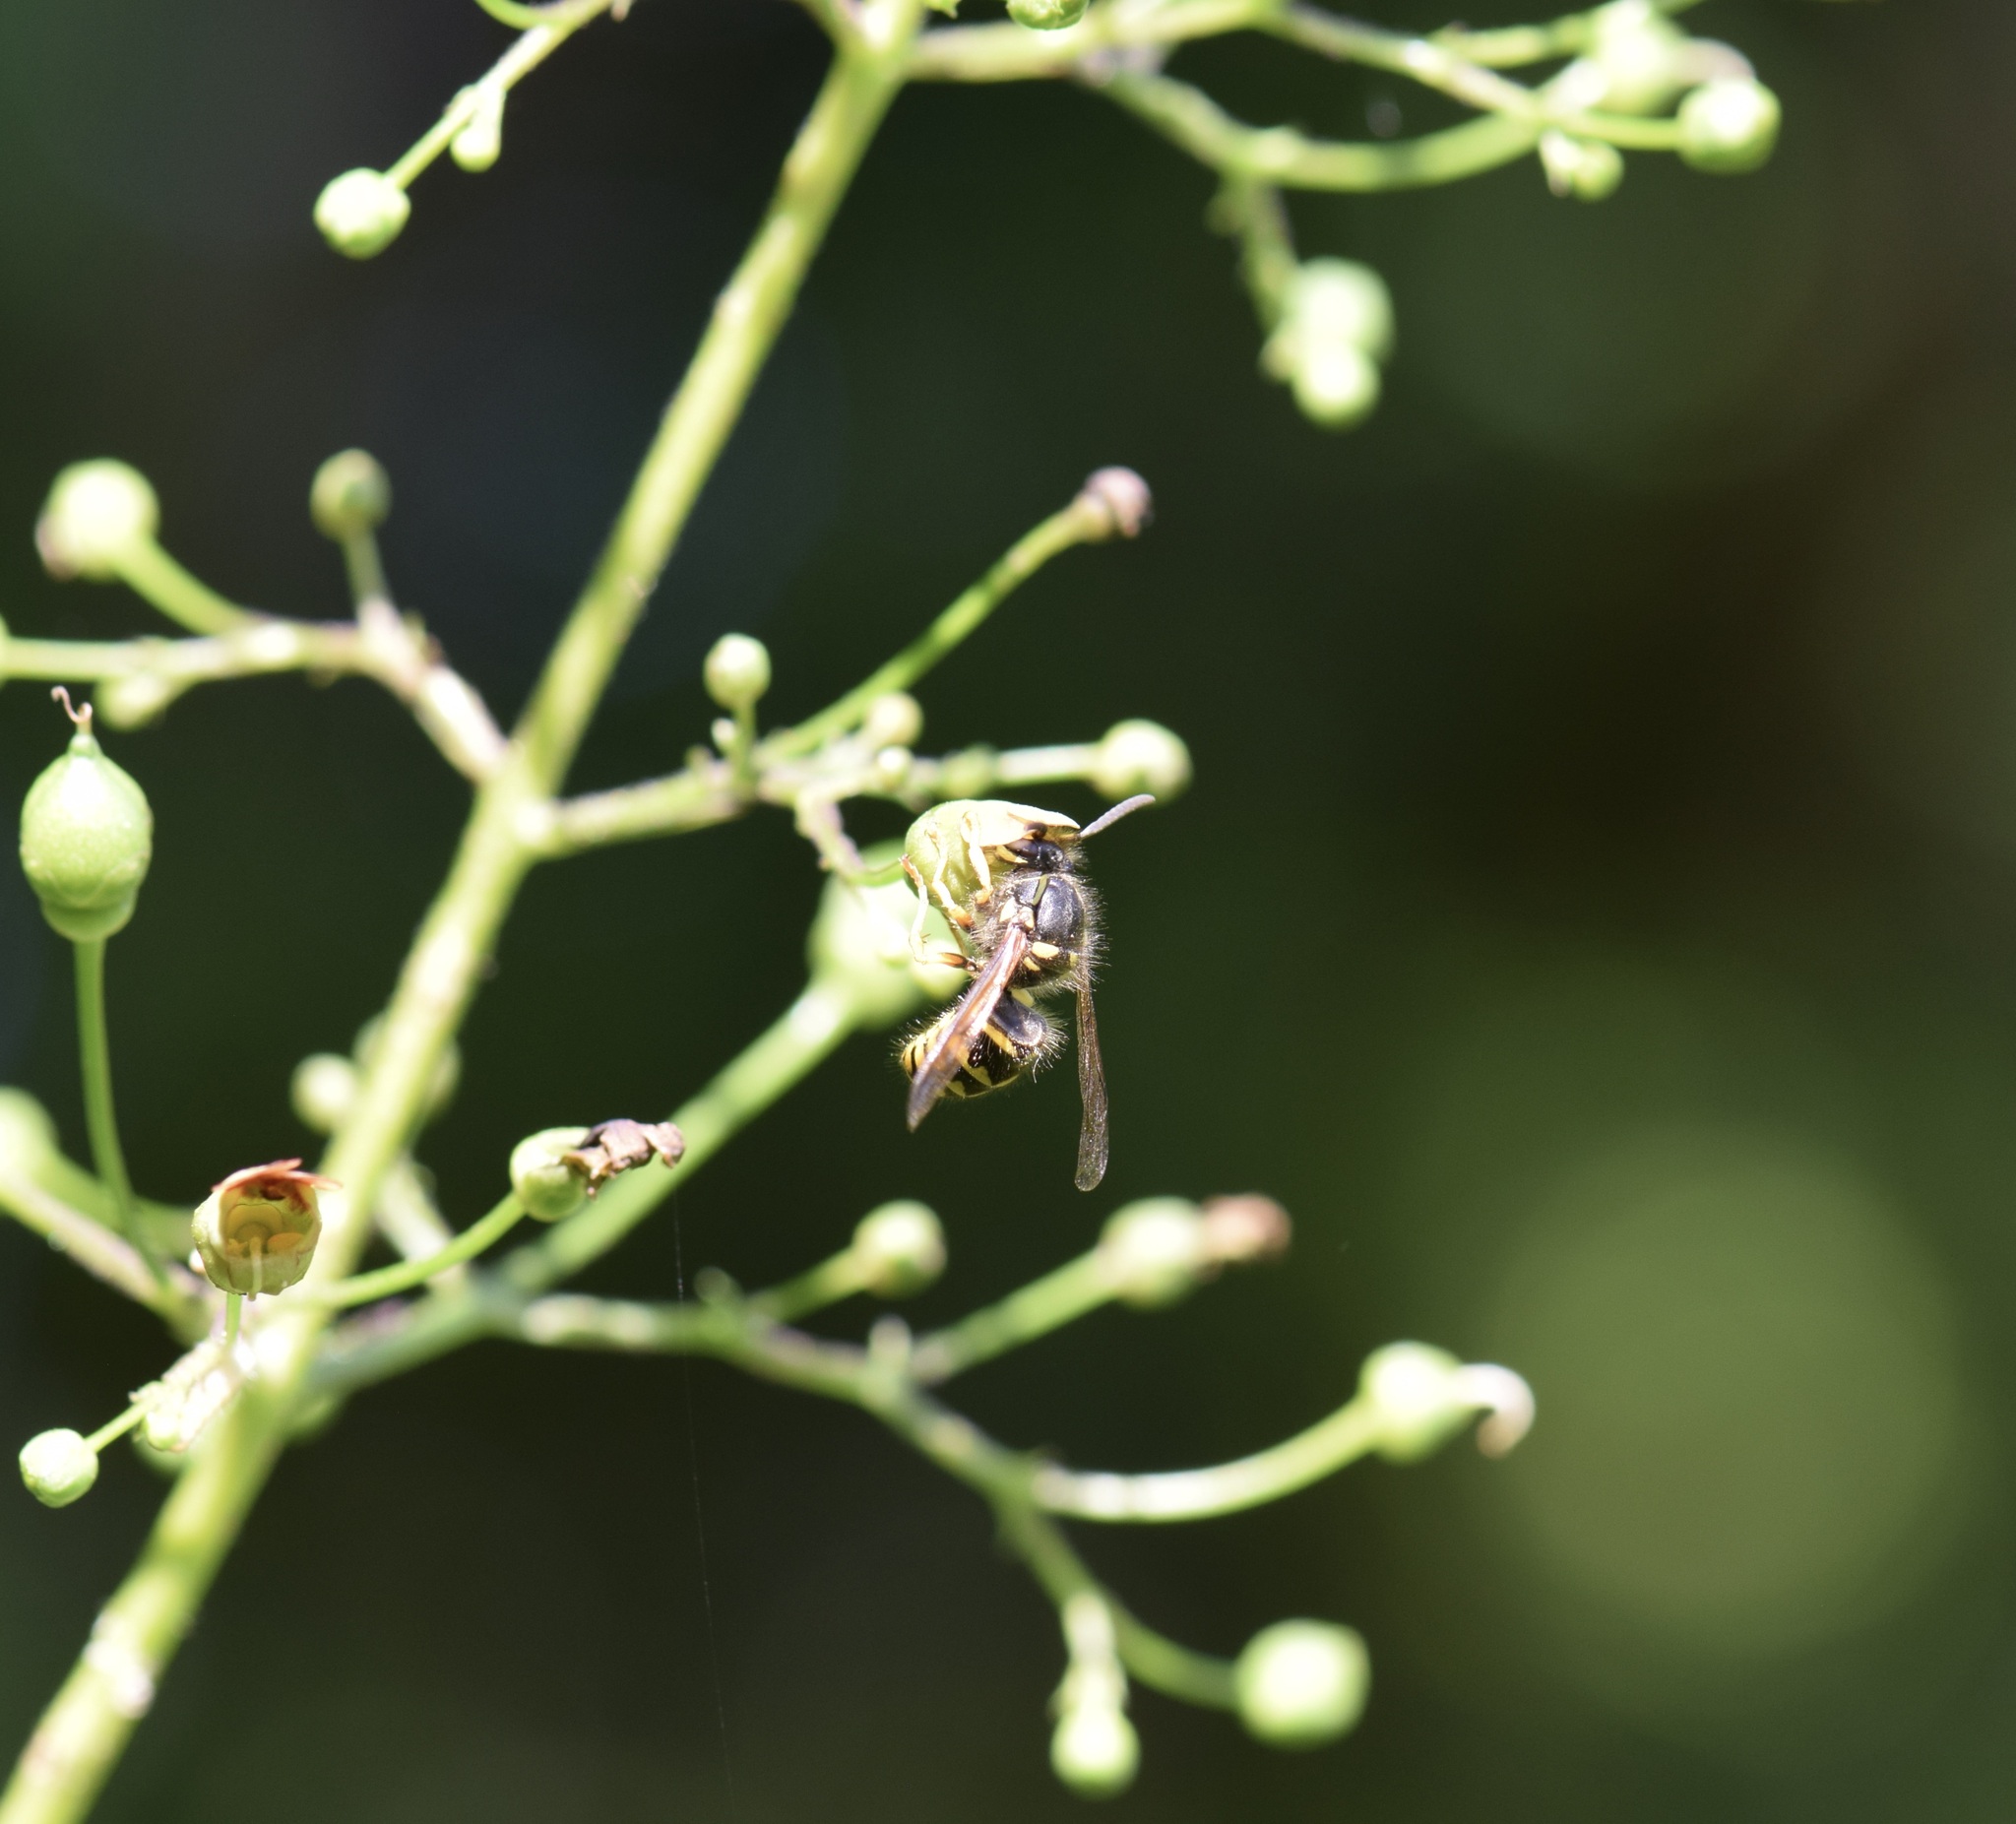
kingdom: Animalia
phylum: Arthropoda
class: Insecta
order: Hymenoptera
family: Vespidae
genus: Dolichovespula
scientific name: Dolichovespula arenaria
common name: Aerial yellowjacket
